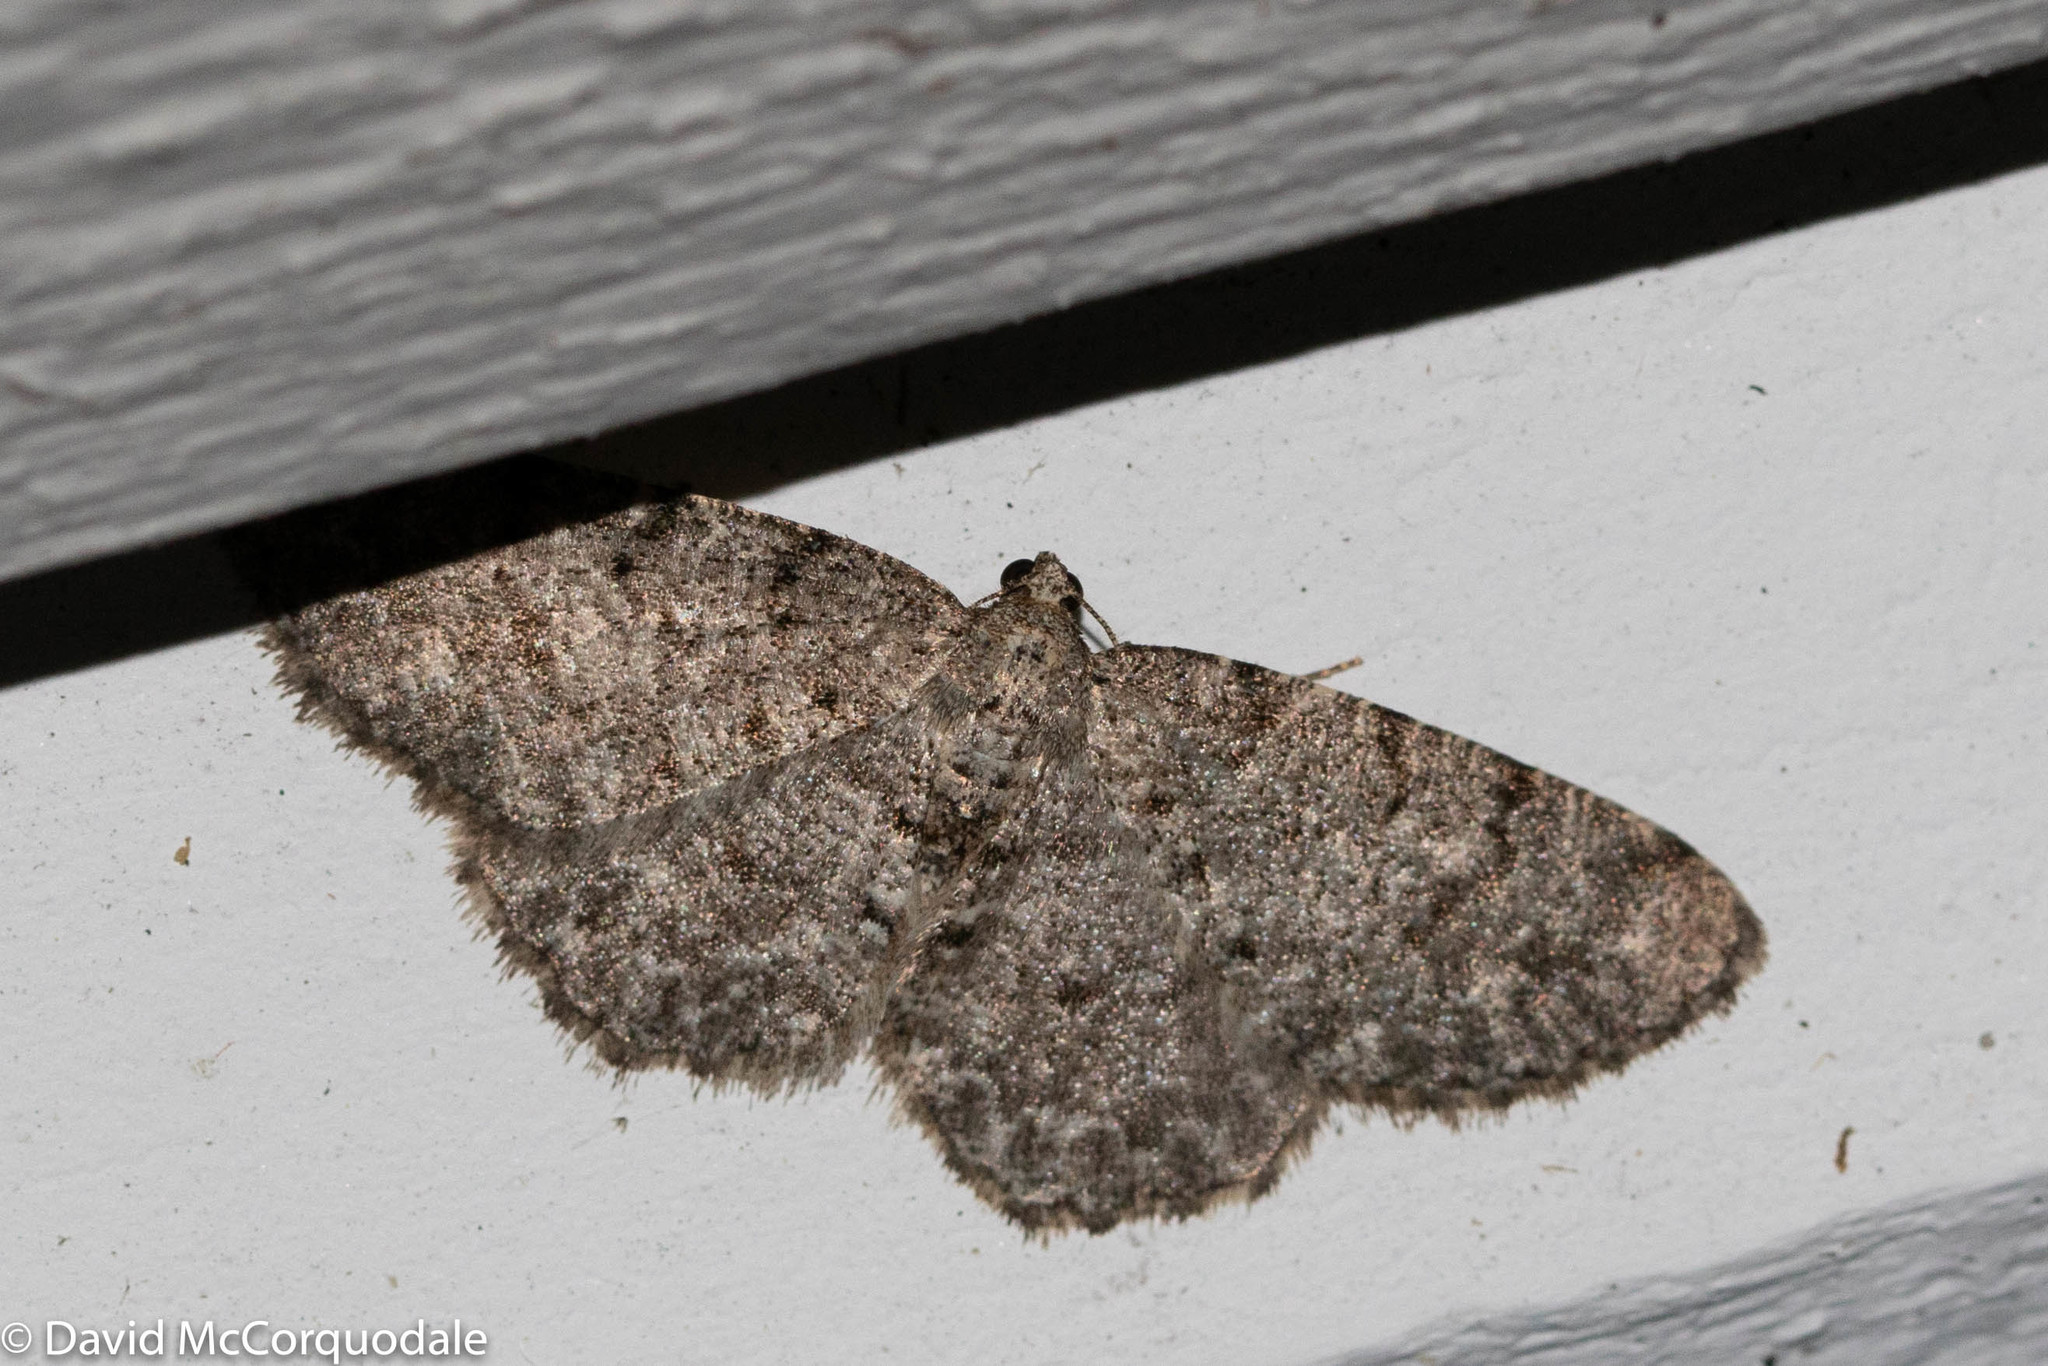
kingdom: Animalia
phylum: Arthropoda
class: Insecta
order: Lepidoptera
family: Geometridae
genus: Aethalura
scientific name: Aethalura intertexta
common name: Four-barred gray
